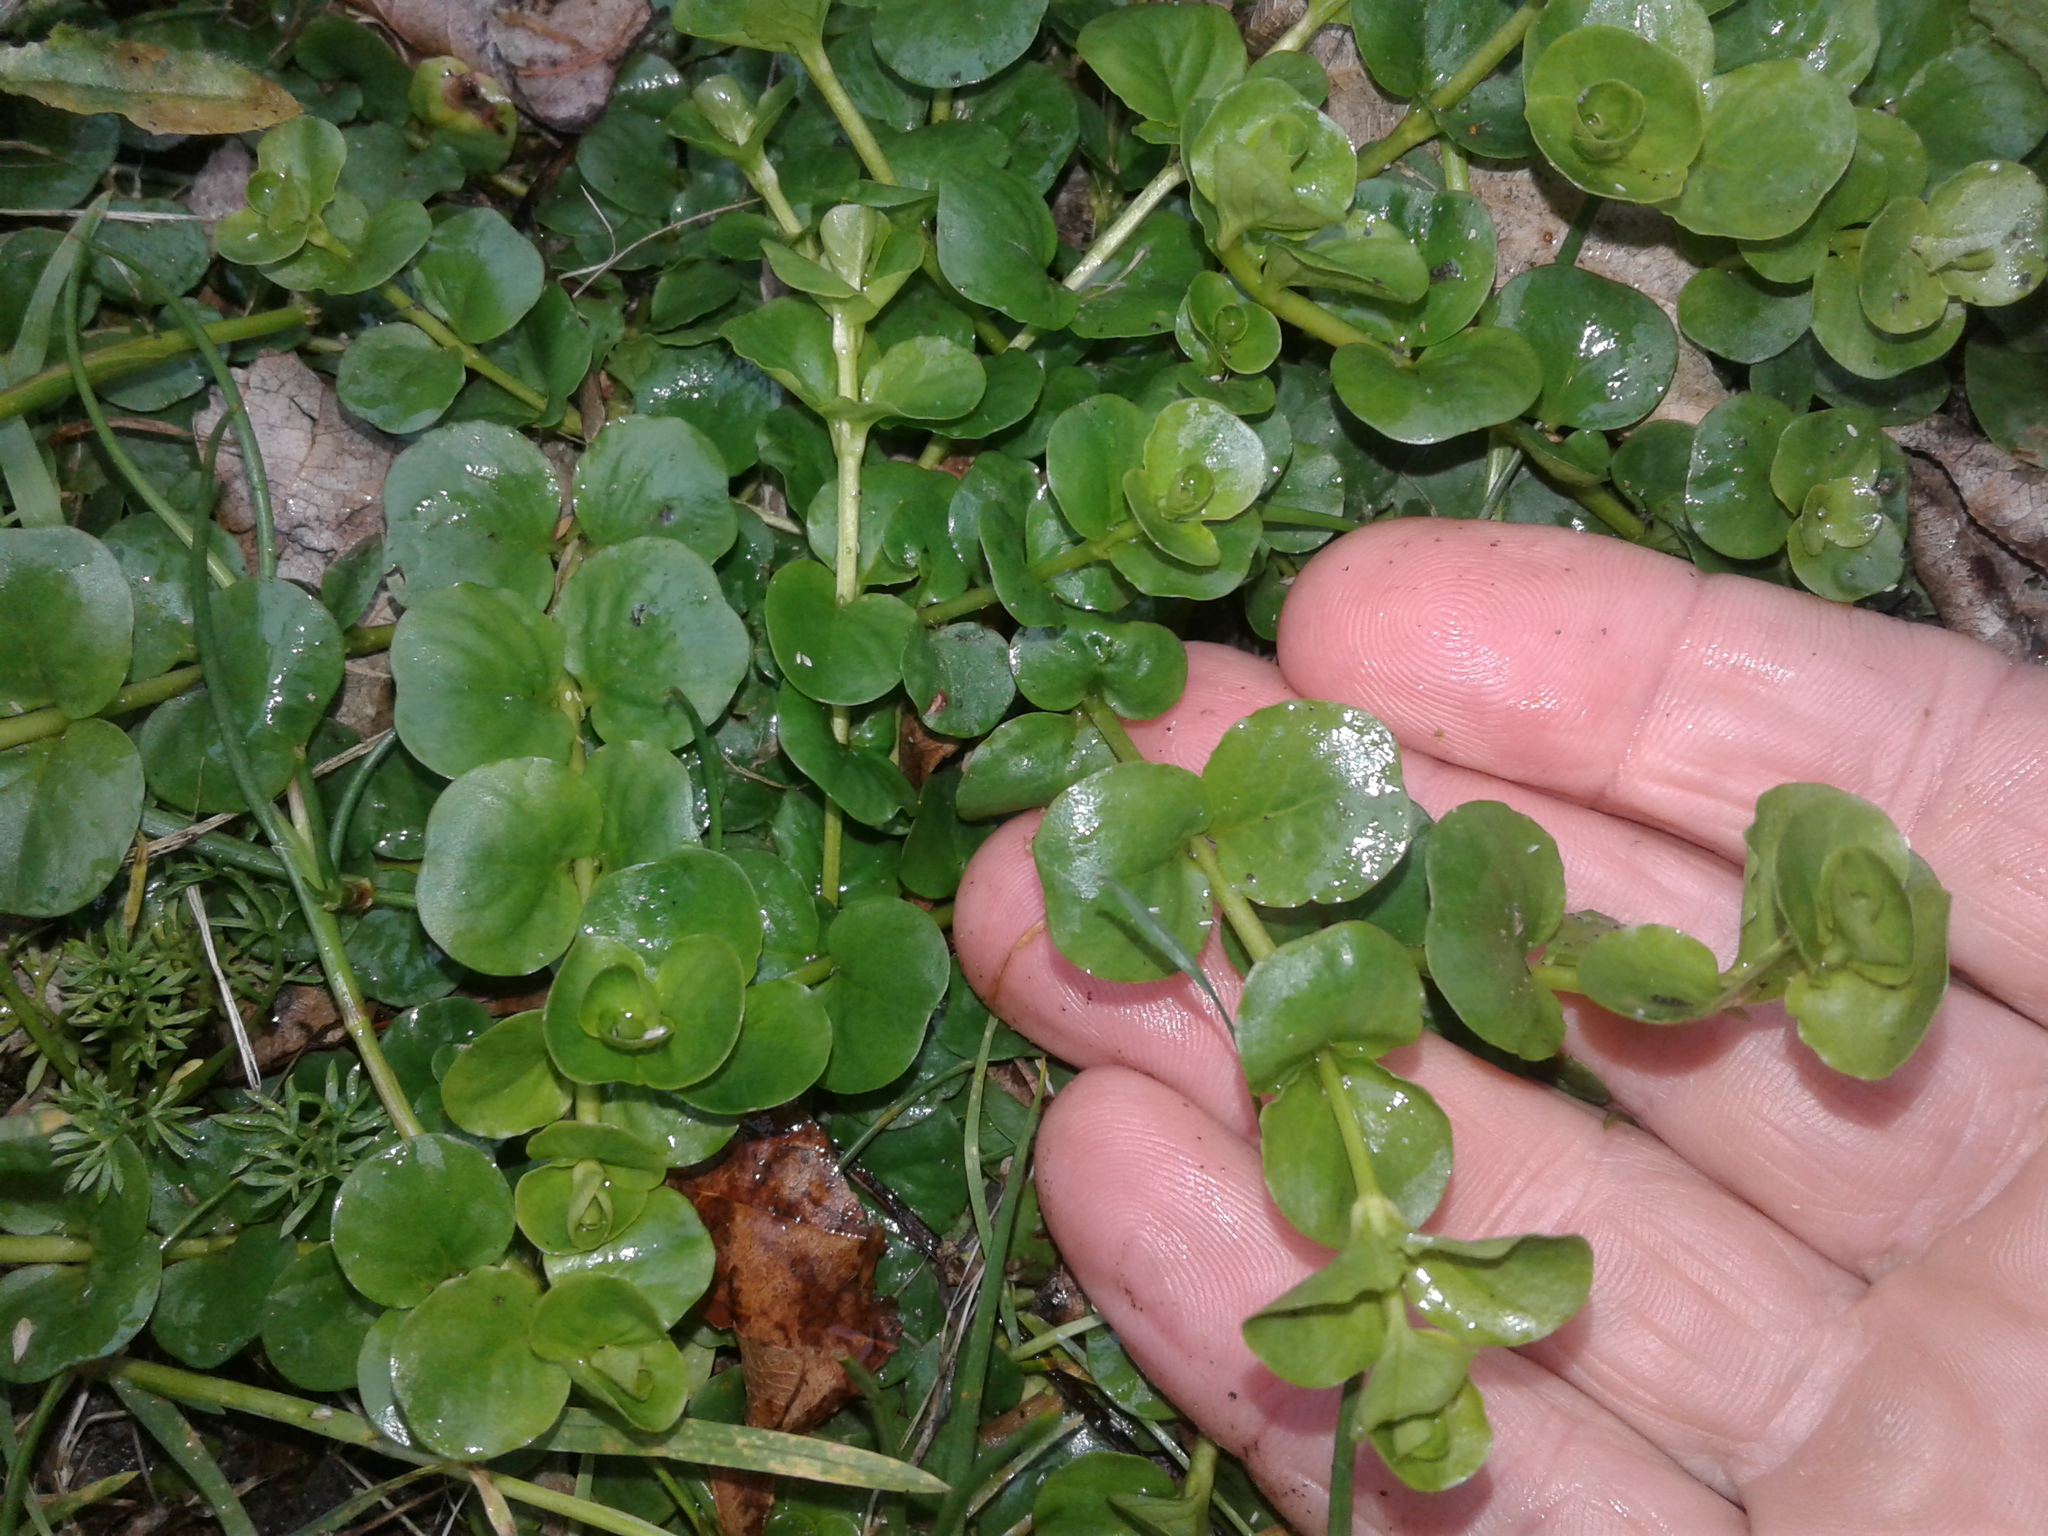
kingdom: Plantae
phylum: Tracheophyta
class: Magnoliopsida
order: Myrtales
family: Onagraceae
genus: Epilobium
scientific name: Epilobium
